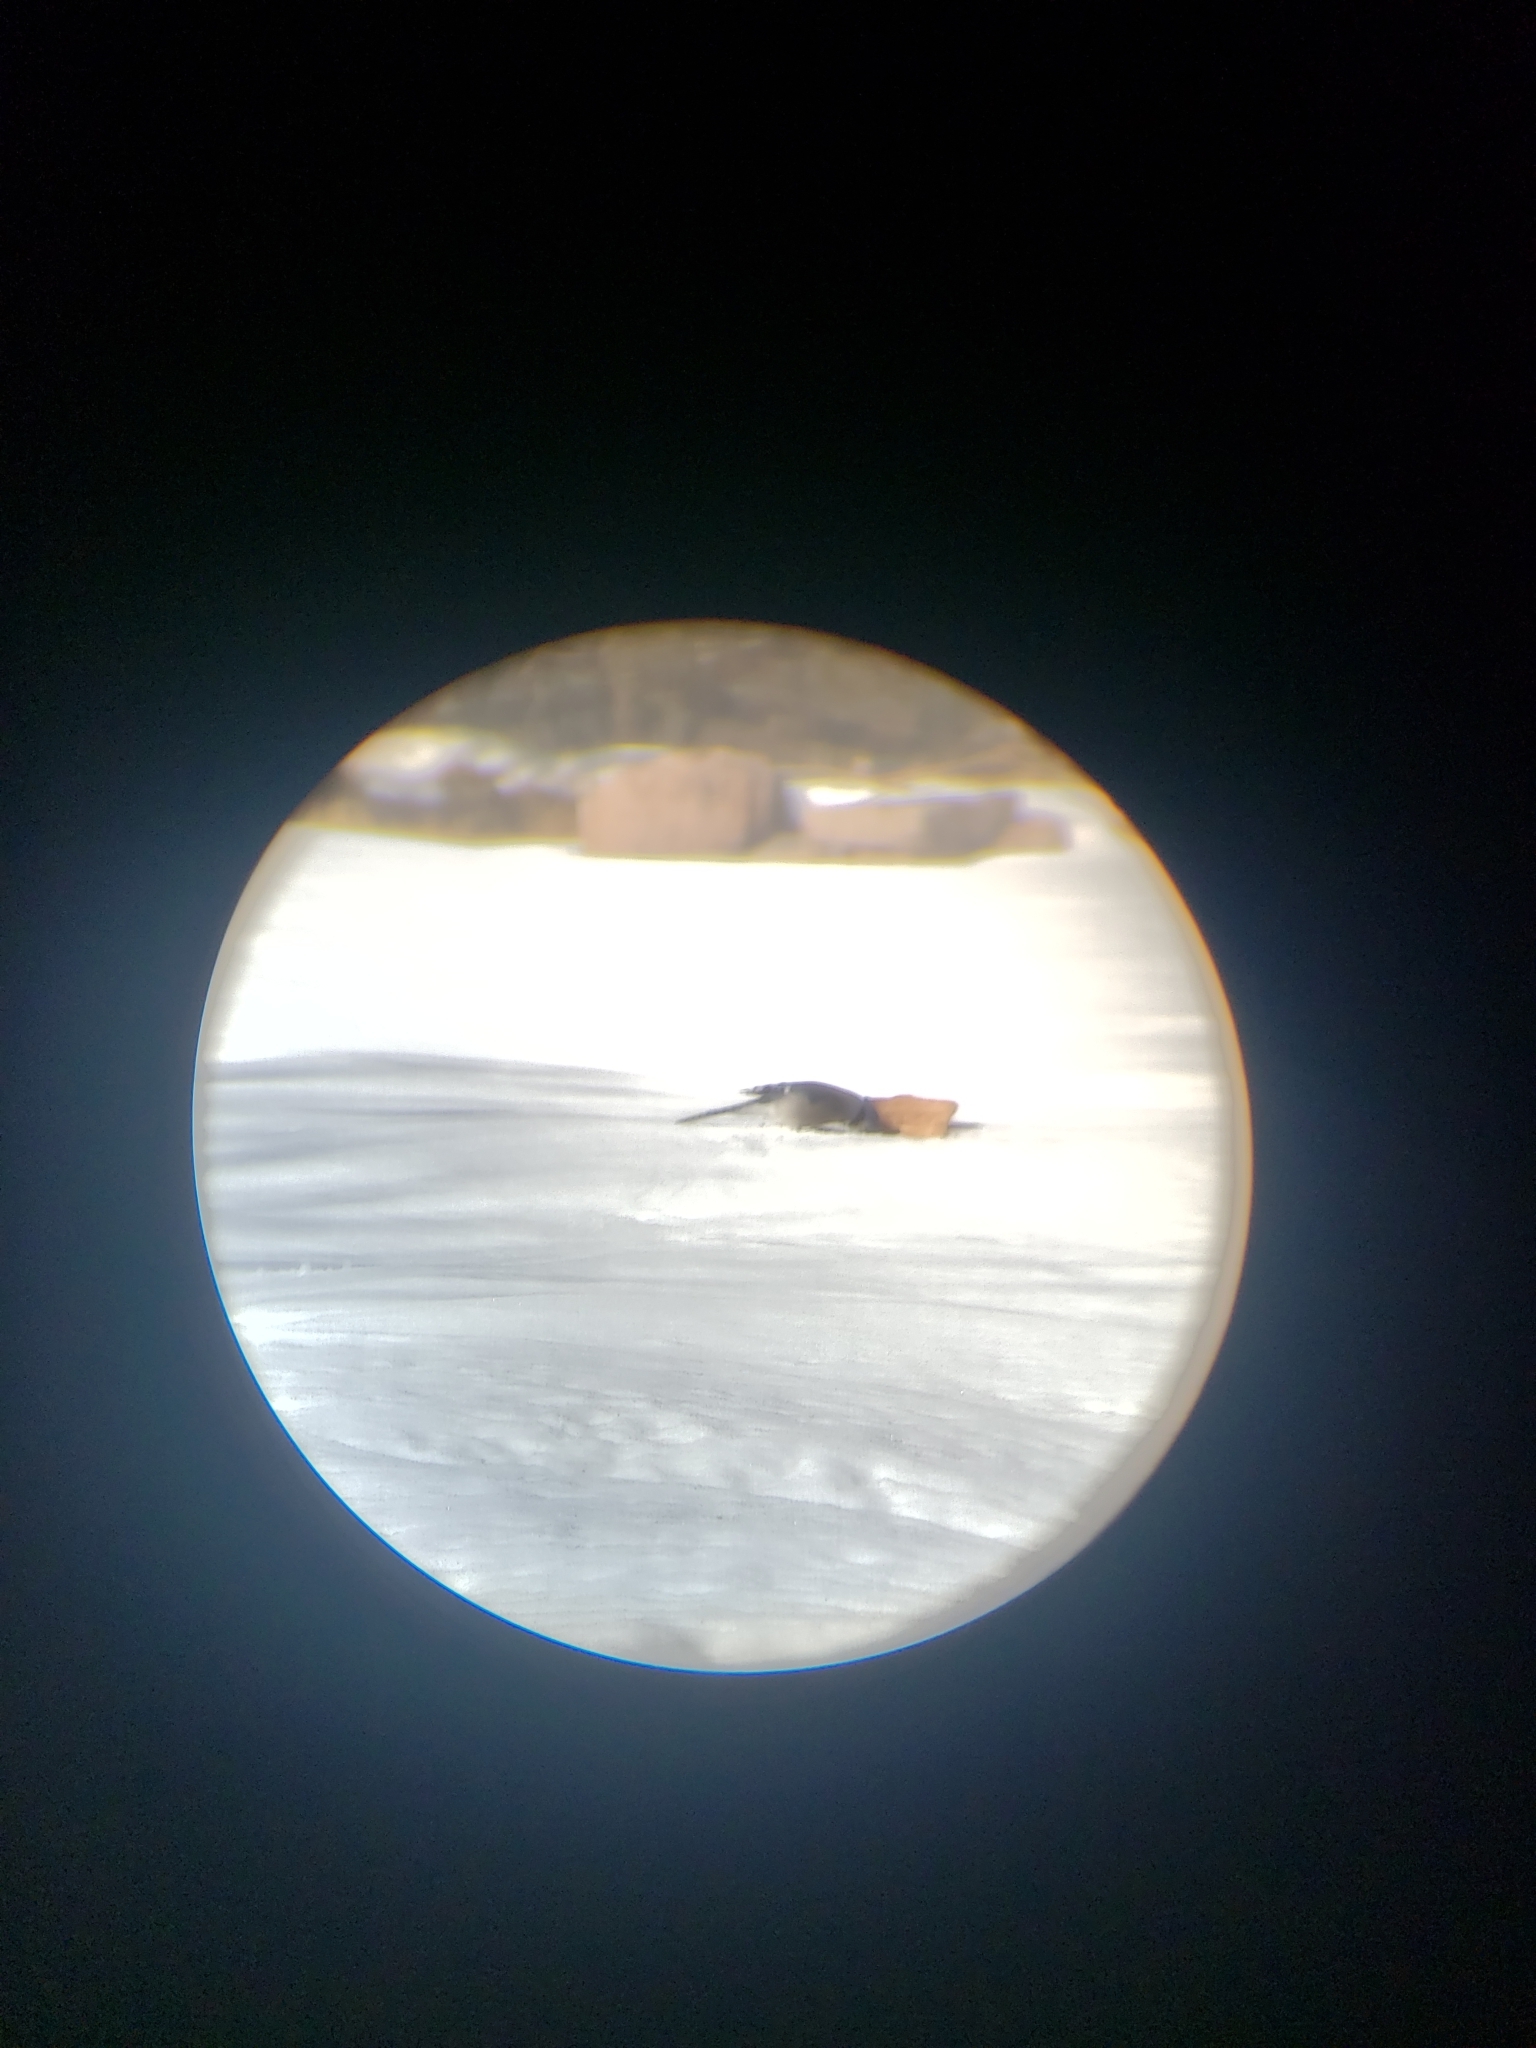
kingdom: Animalia
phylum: Chordata
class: Aves
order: Passeriformes
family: Corvidae
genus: Cyanocitta
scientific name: Cyanocitta cristata
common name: Blue jay
